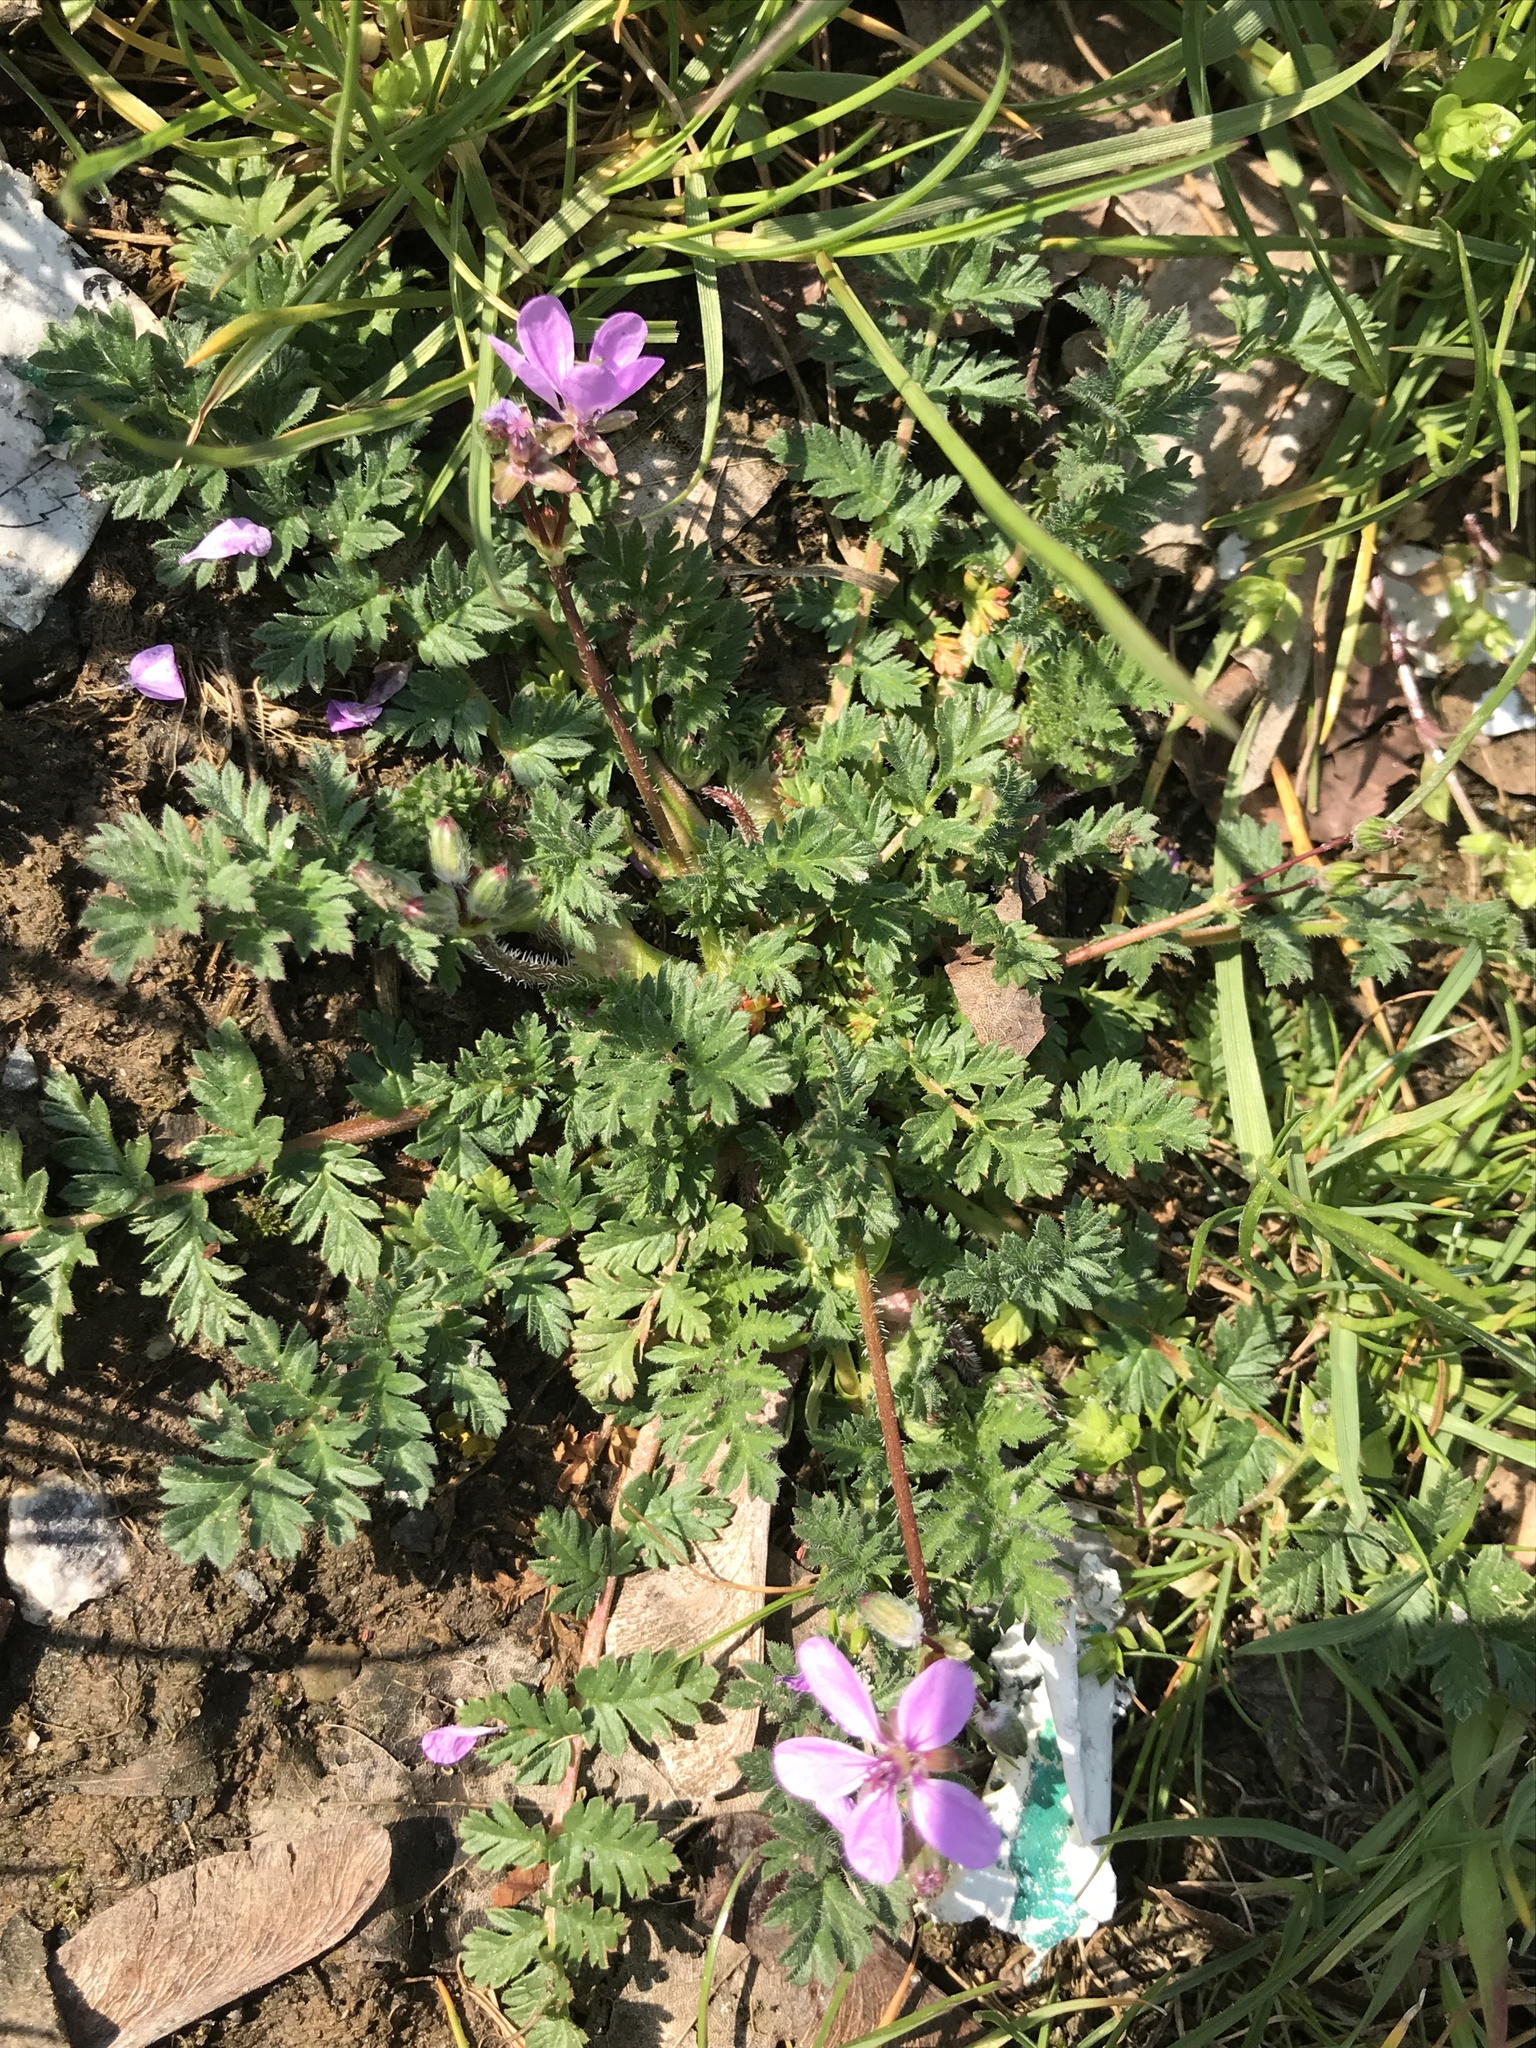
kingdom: Plantae
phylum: Tracheophyta
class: Magnoliopsida
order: Geraniales
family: Geraniaceae
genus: Erodium
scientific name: Erodium cicutarium
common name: Common stork's-bill
